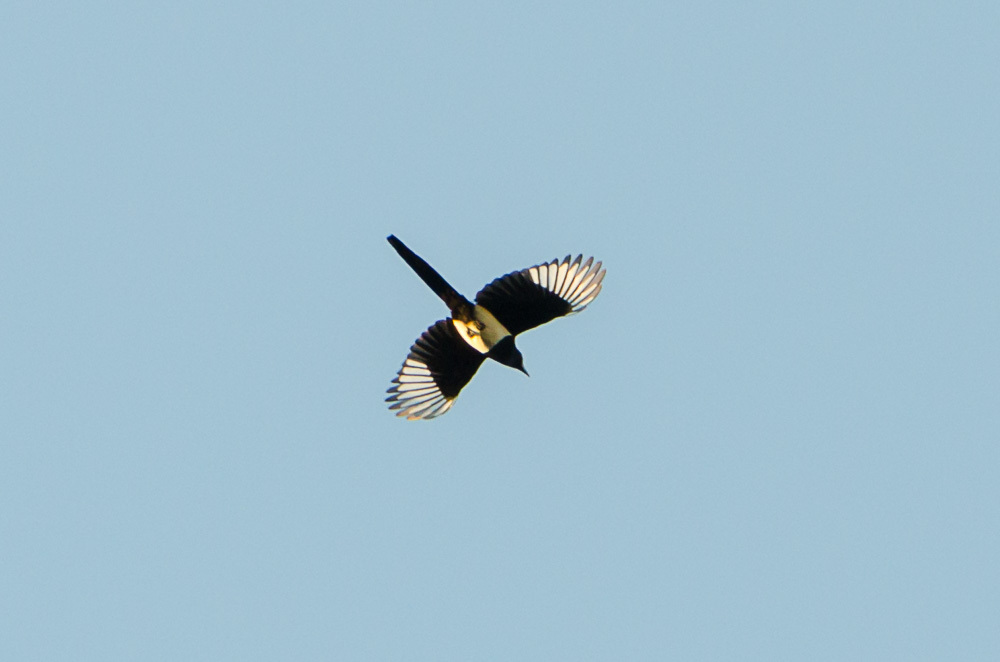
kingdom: Animalia
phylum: Chordata
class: Aves
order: Passeriformes
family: Corvidae
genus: Pica
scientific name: Pica pica
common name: Eurasian magpie
